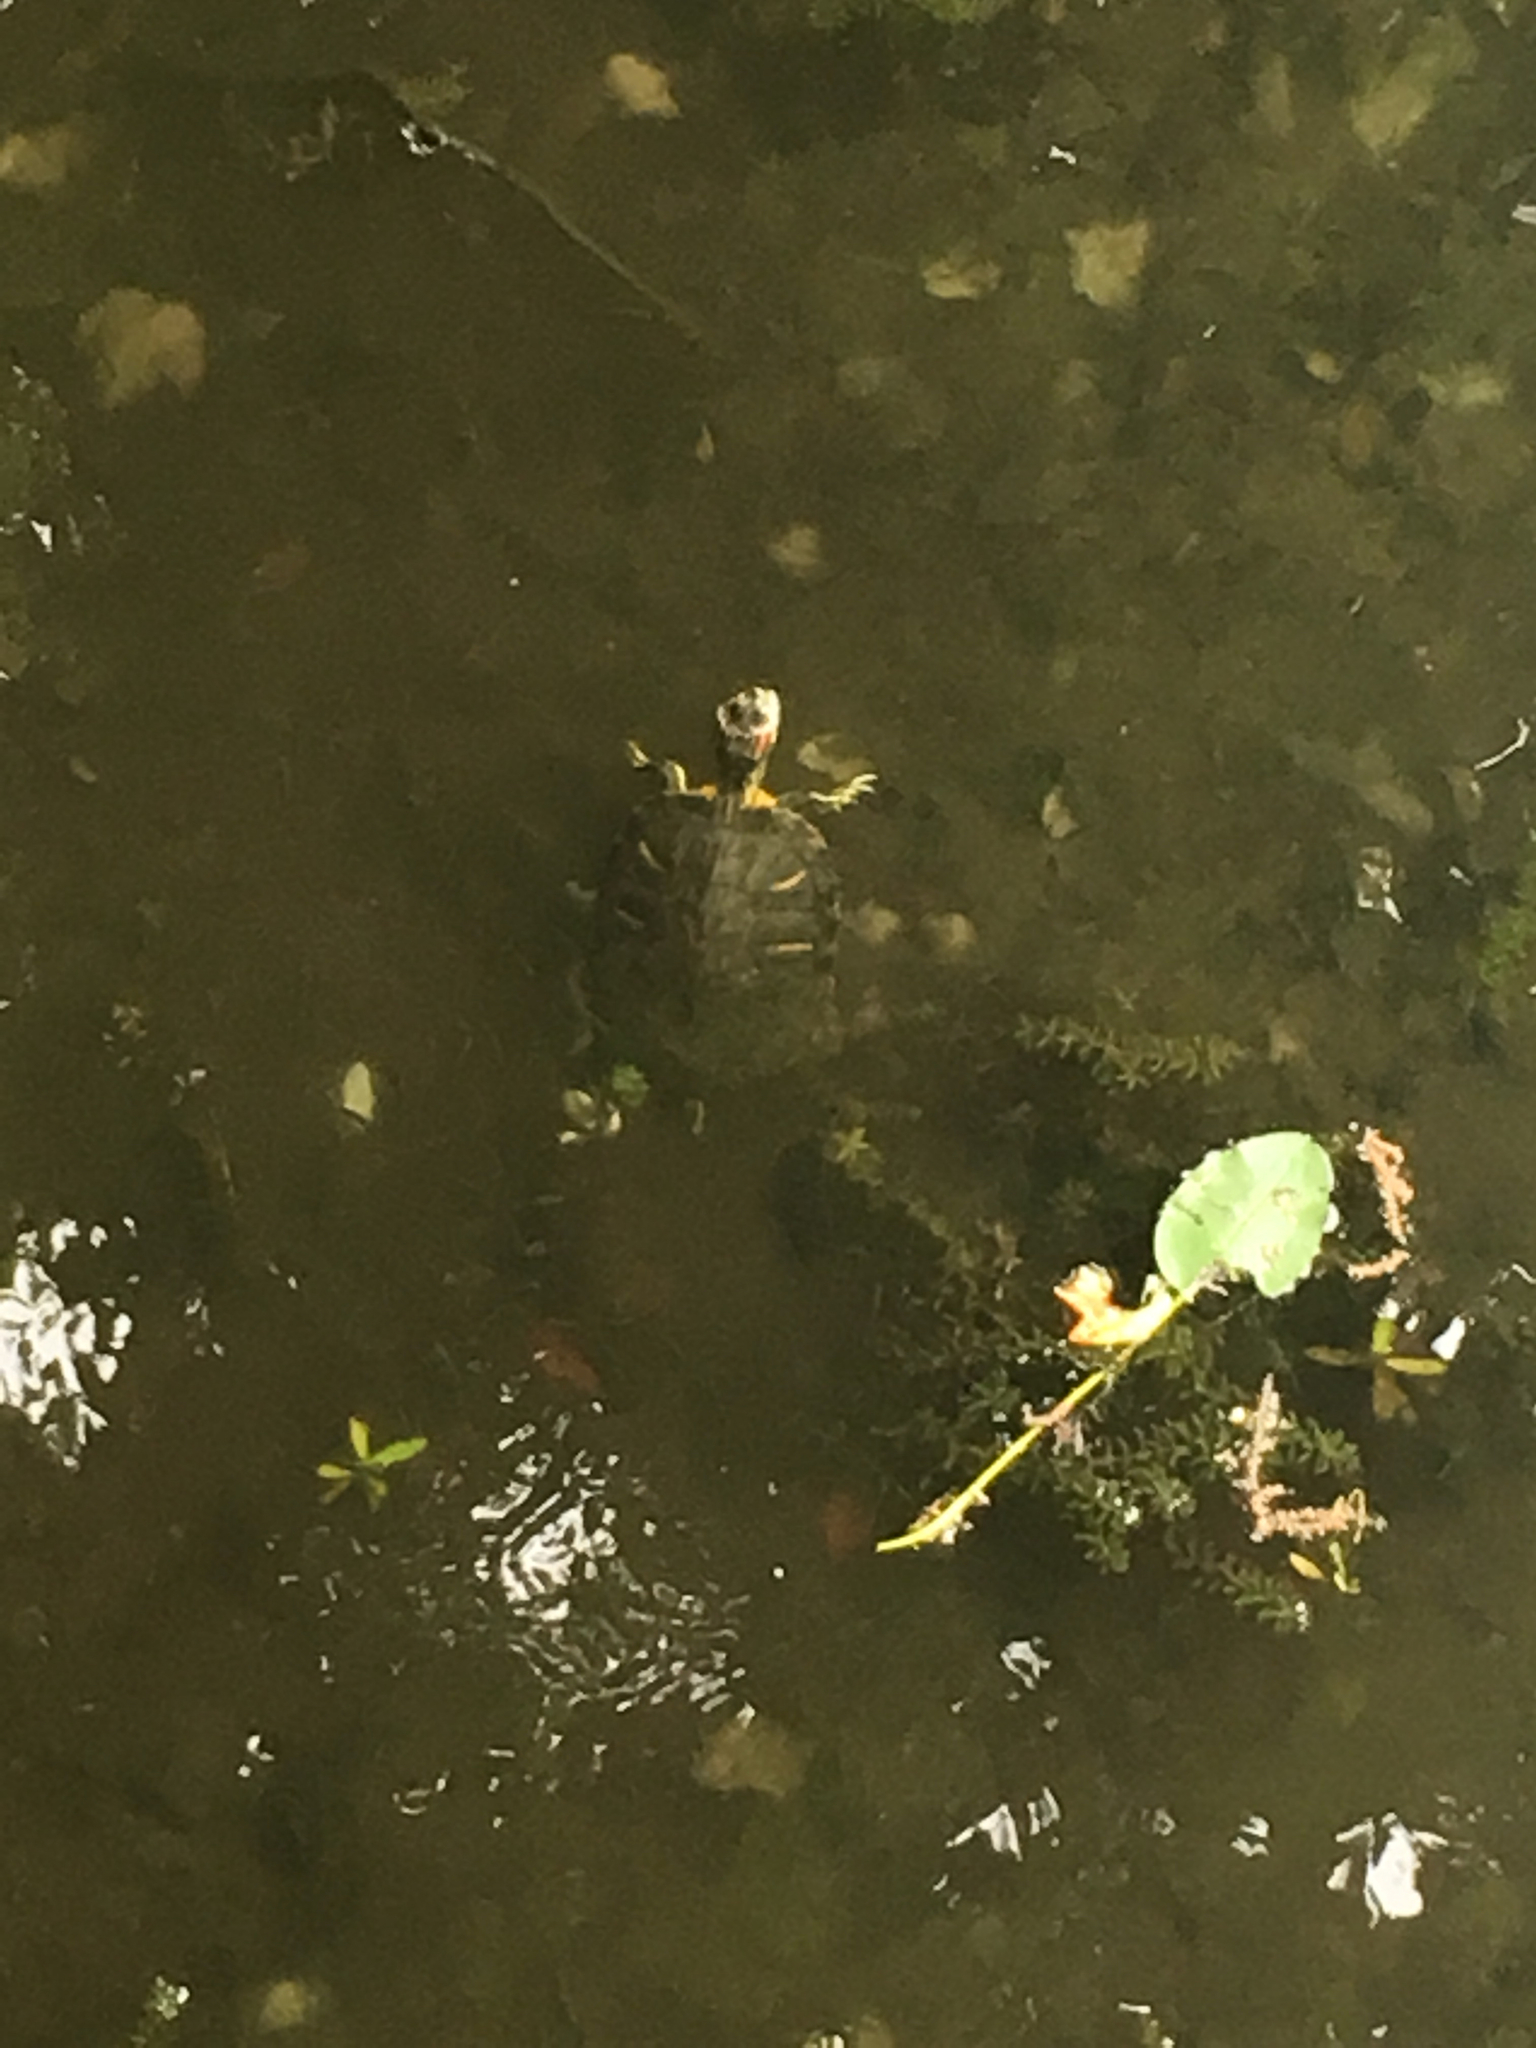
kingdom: Animalia
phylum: Chordata
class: Testudines
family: Emydidae
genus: Trachemys
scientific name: Trachemys scripta
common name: Slider
